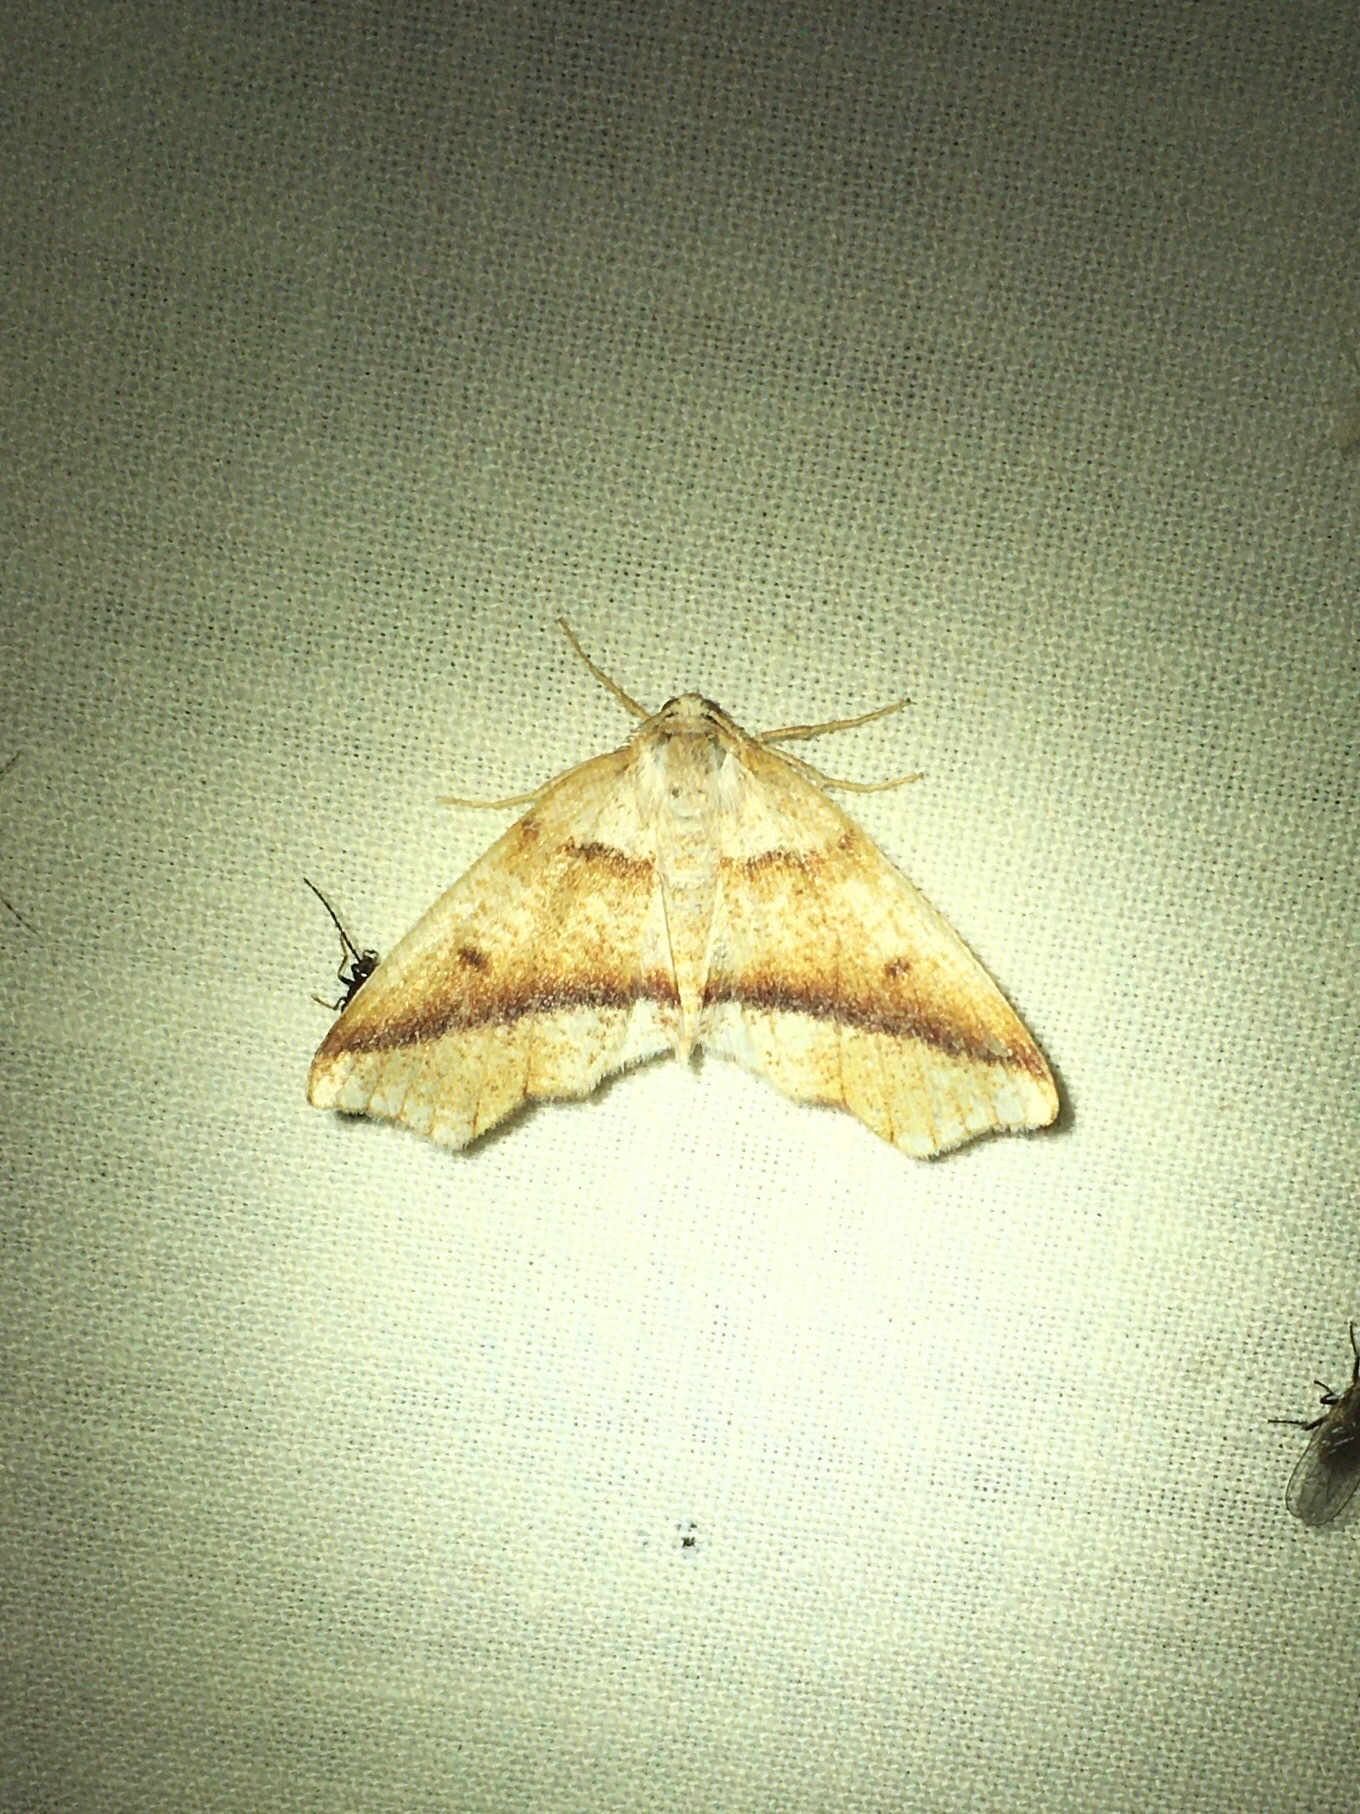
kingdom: Animalia
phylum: Arthropoda
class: Insecta
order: Lepidoptera
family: Geometridae
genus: Plagodis
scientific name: Plagodis alcoolaria
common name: Hollow-spotted plagodis
